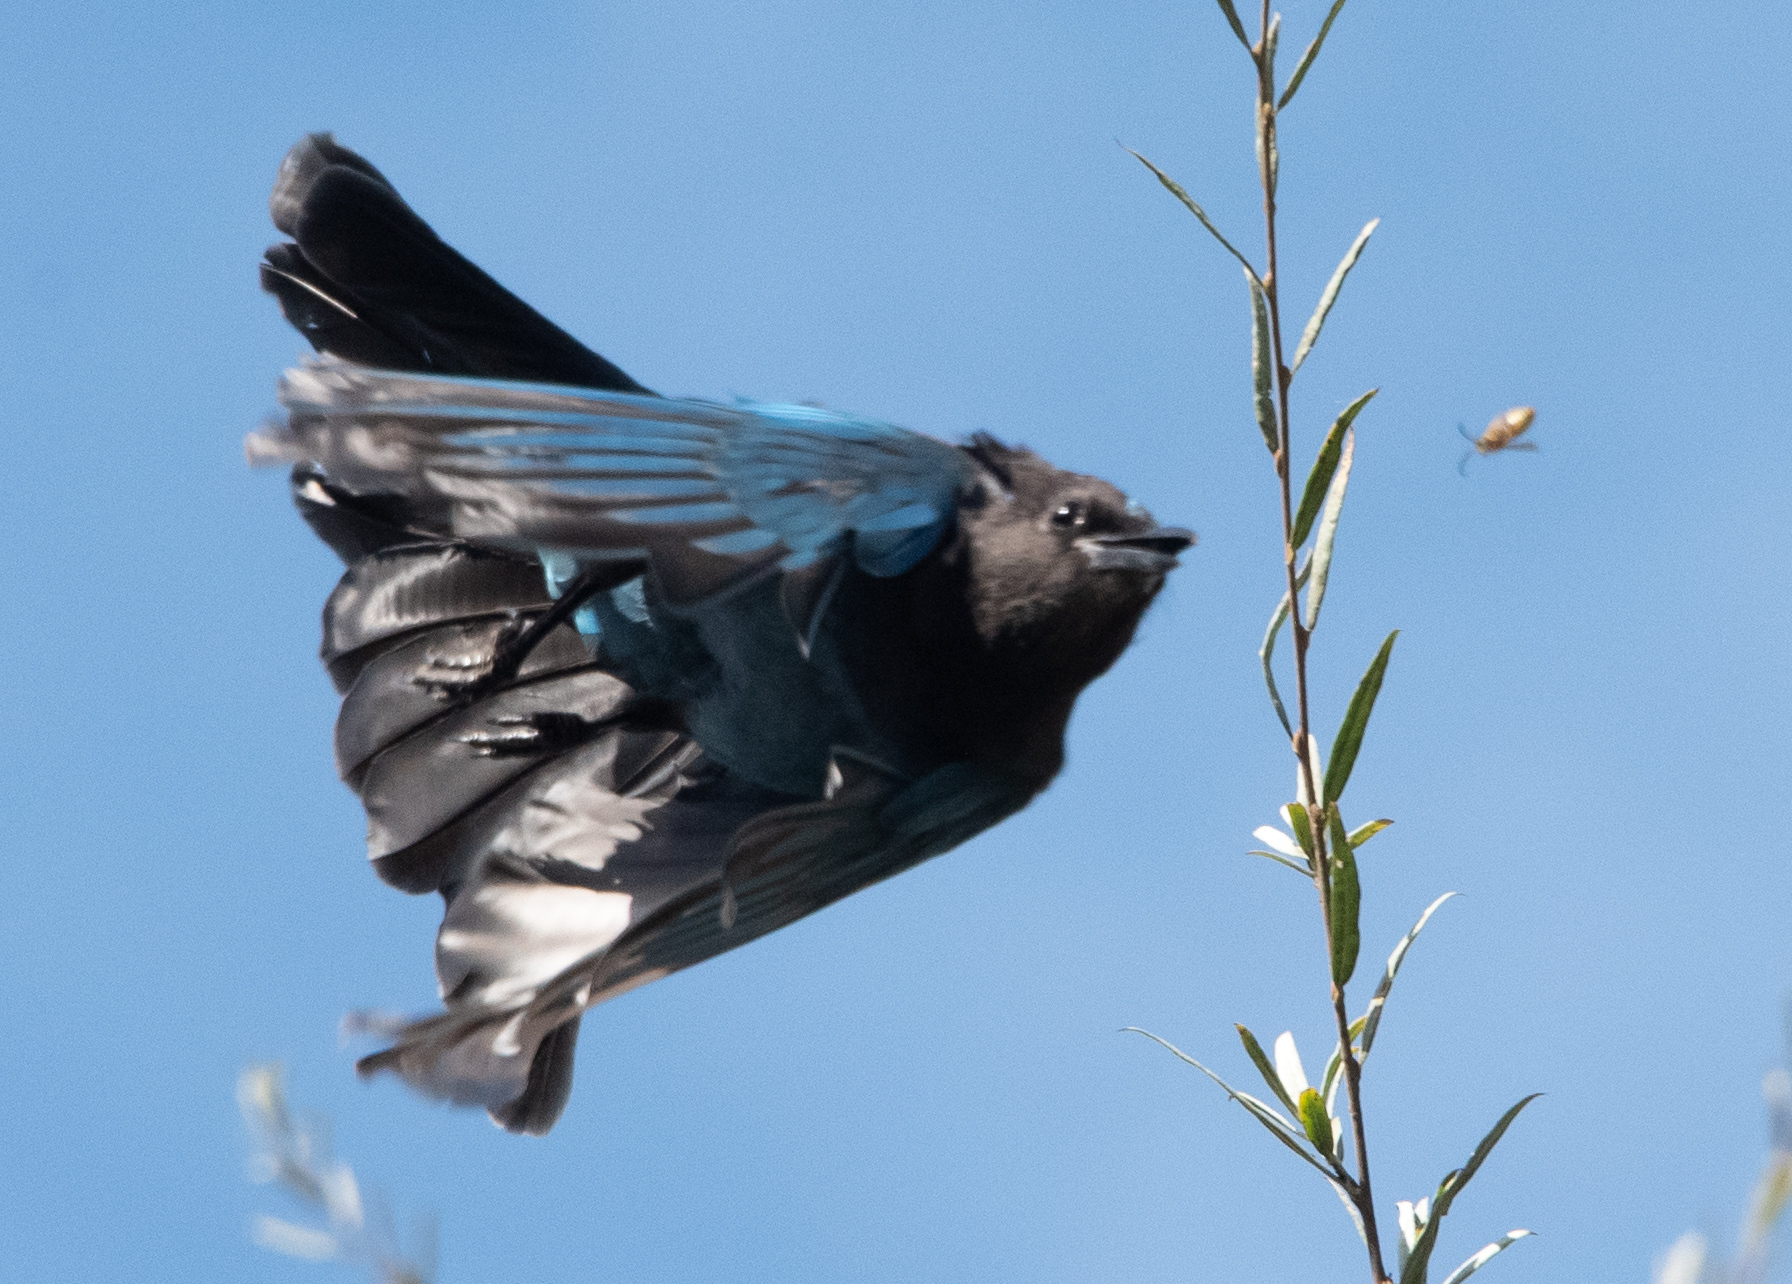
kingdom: Animalia
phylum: Chordata
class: Aves
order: Passeriformes
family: Corvidae
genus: Cyanocitta
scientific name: Cyanocitta stelleri
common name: Steller's jay
